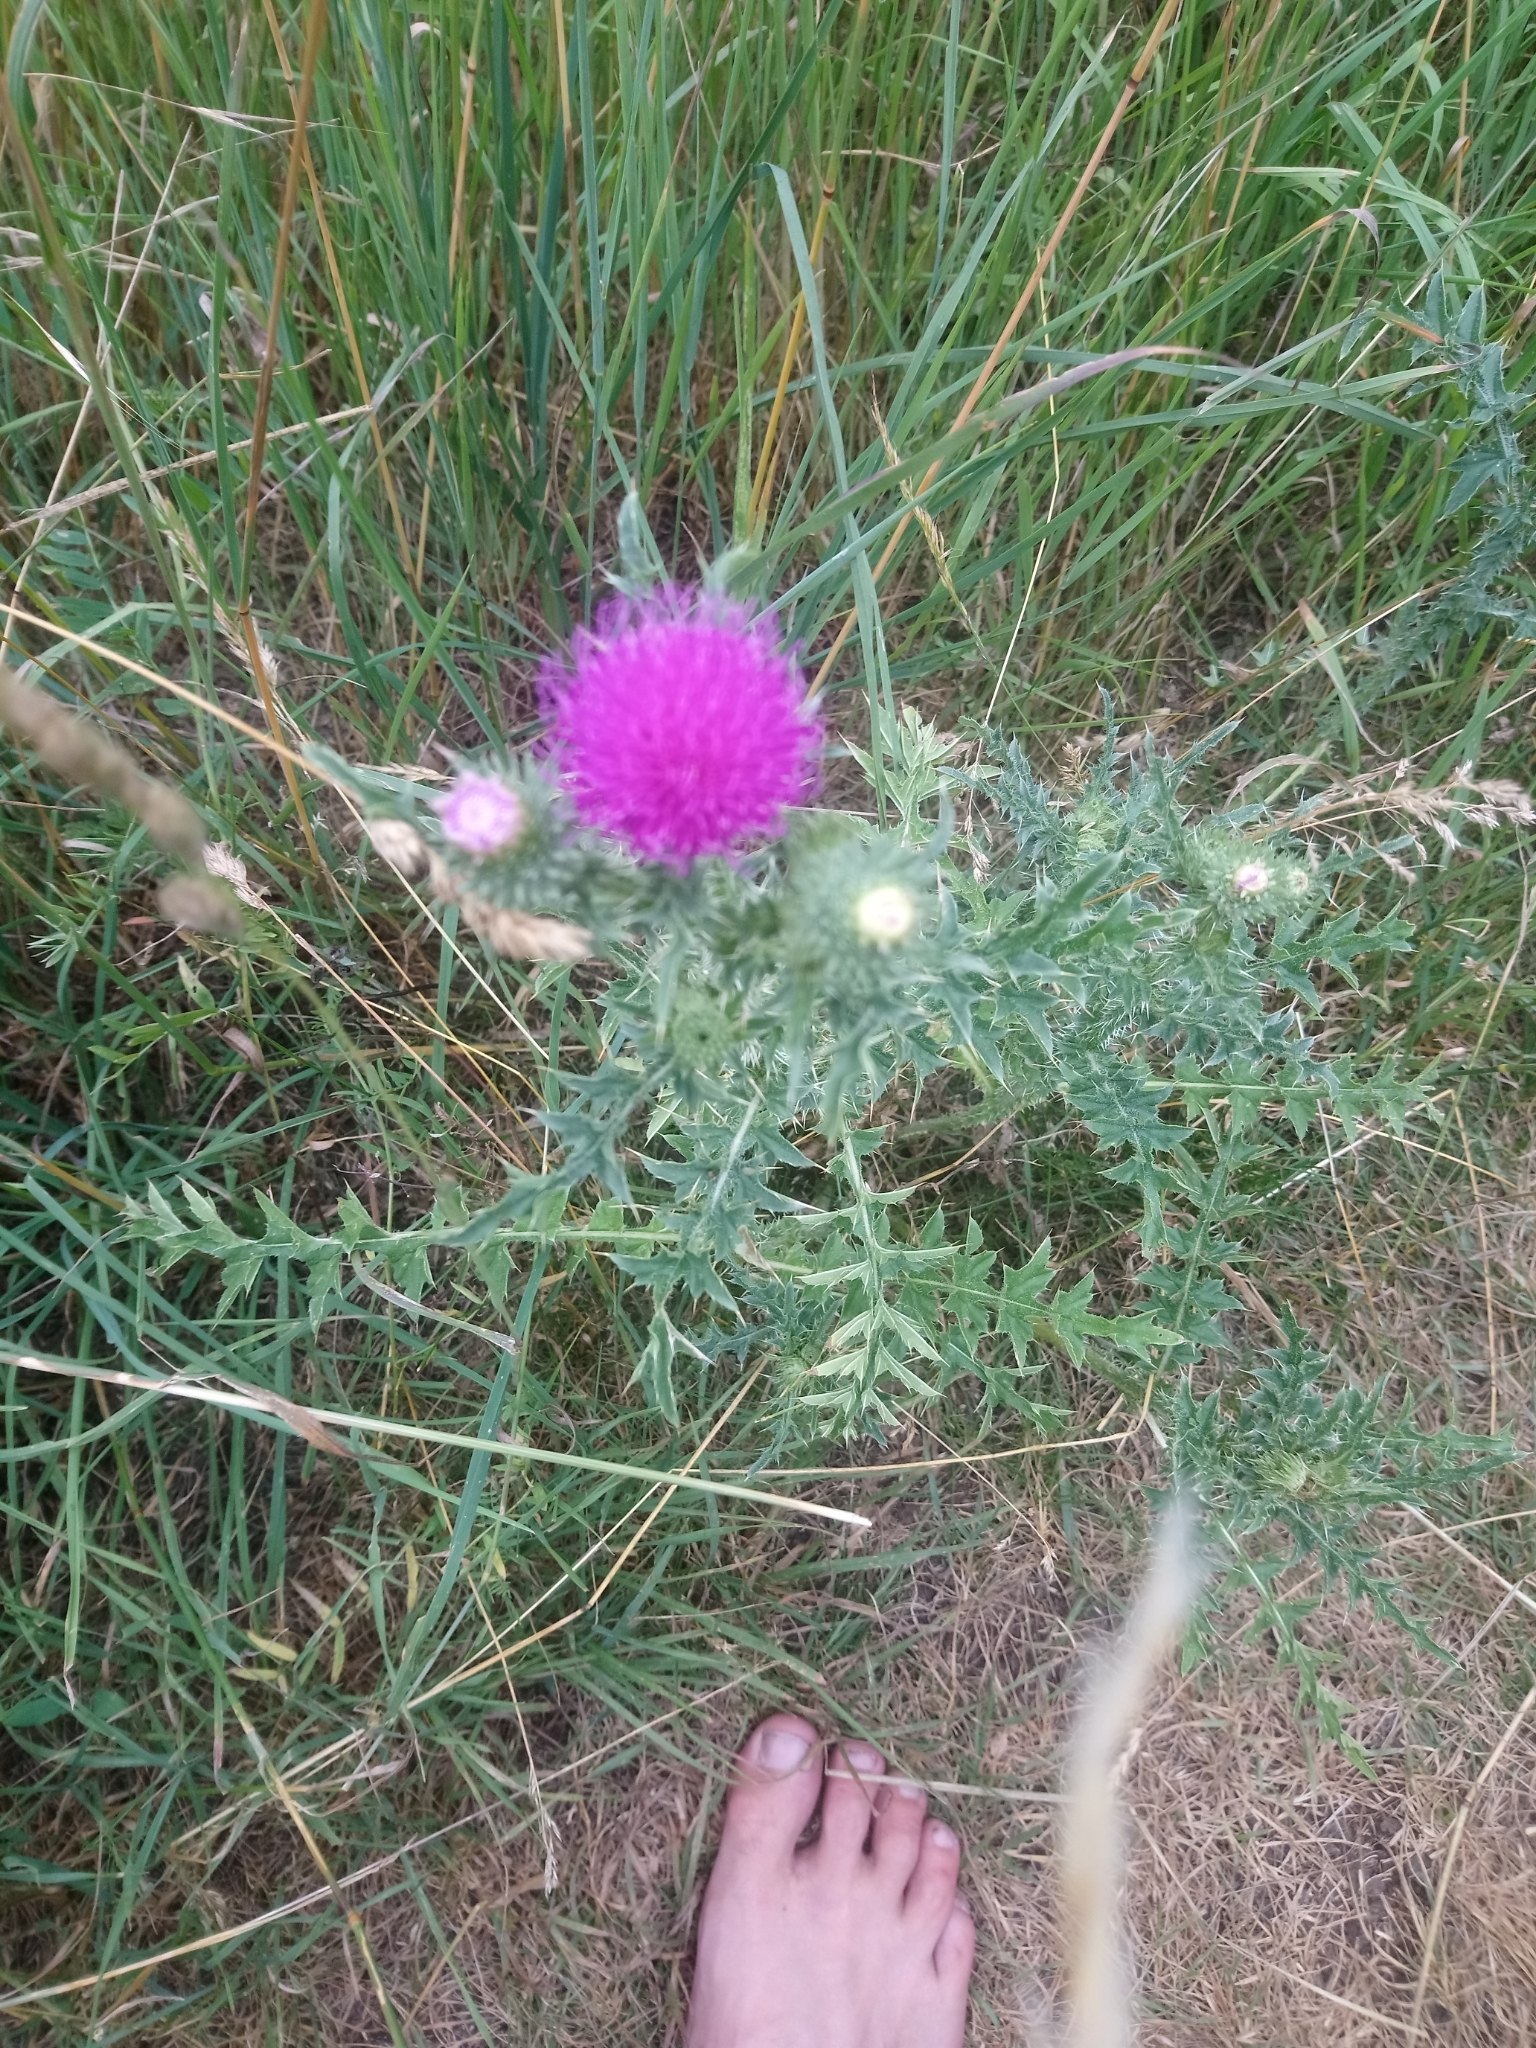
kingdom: Plantae
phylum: Tracheophyta
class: Magnoliopsida
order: Asterales
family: Asteraceae
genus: Carduus
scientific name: Carduus acanthoides
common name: Plumeless thistle
